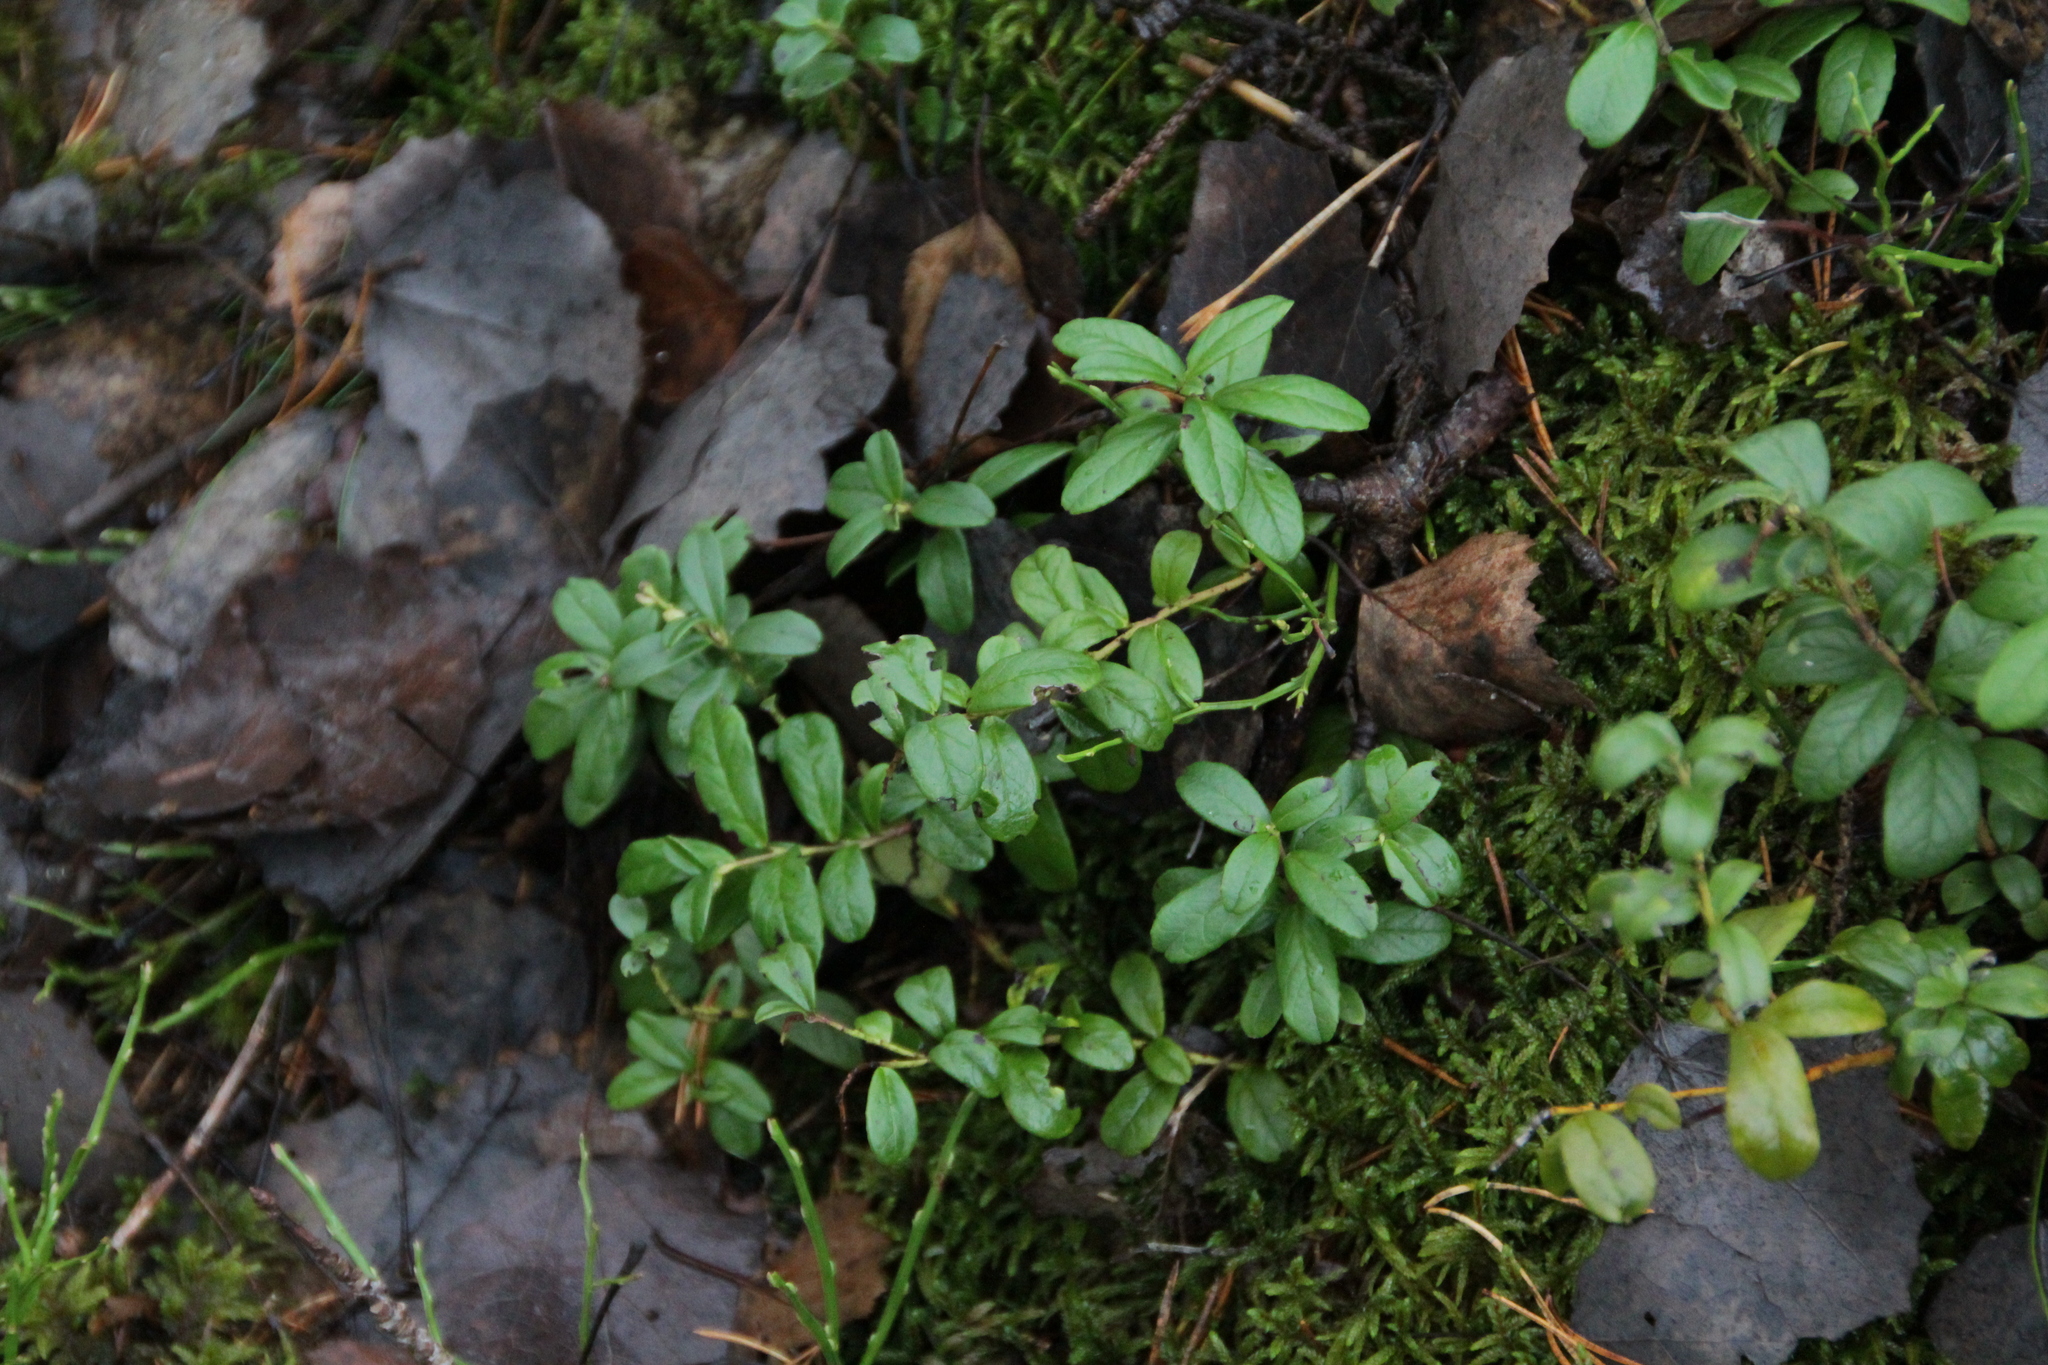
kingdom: Plantae
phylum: Tracheophyta
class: Magnoliopsida
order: Ericales
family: Ericaceae
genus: Vaccinium
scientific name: Vaccinium vitis-idaea
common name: Cowberry
